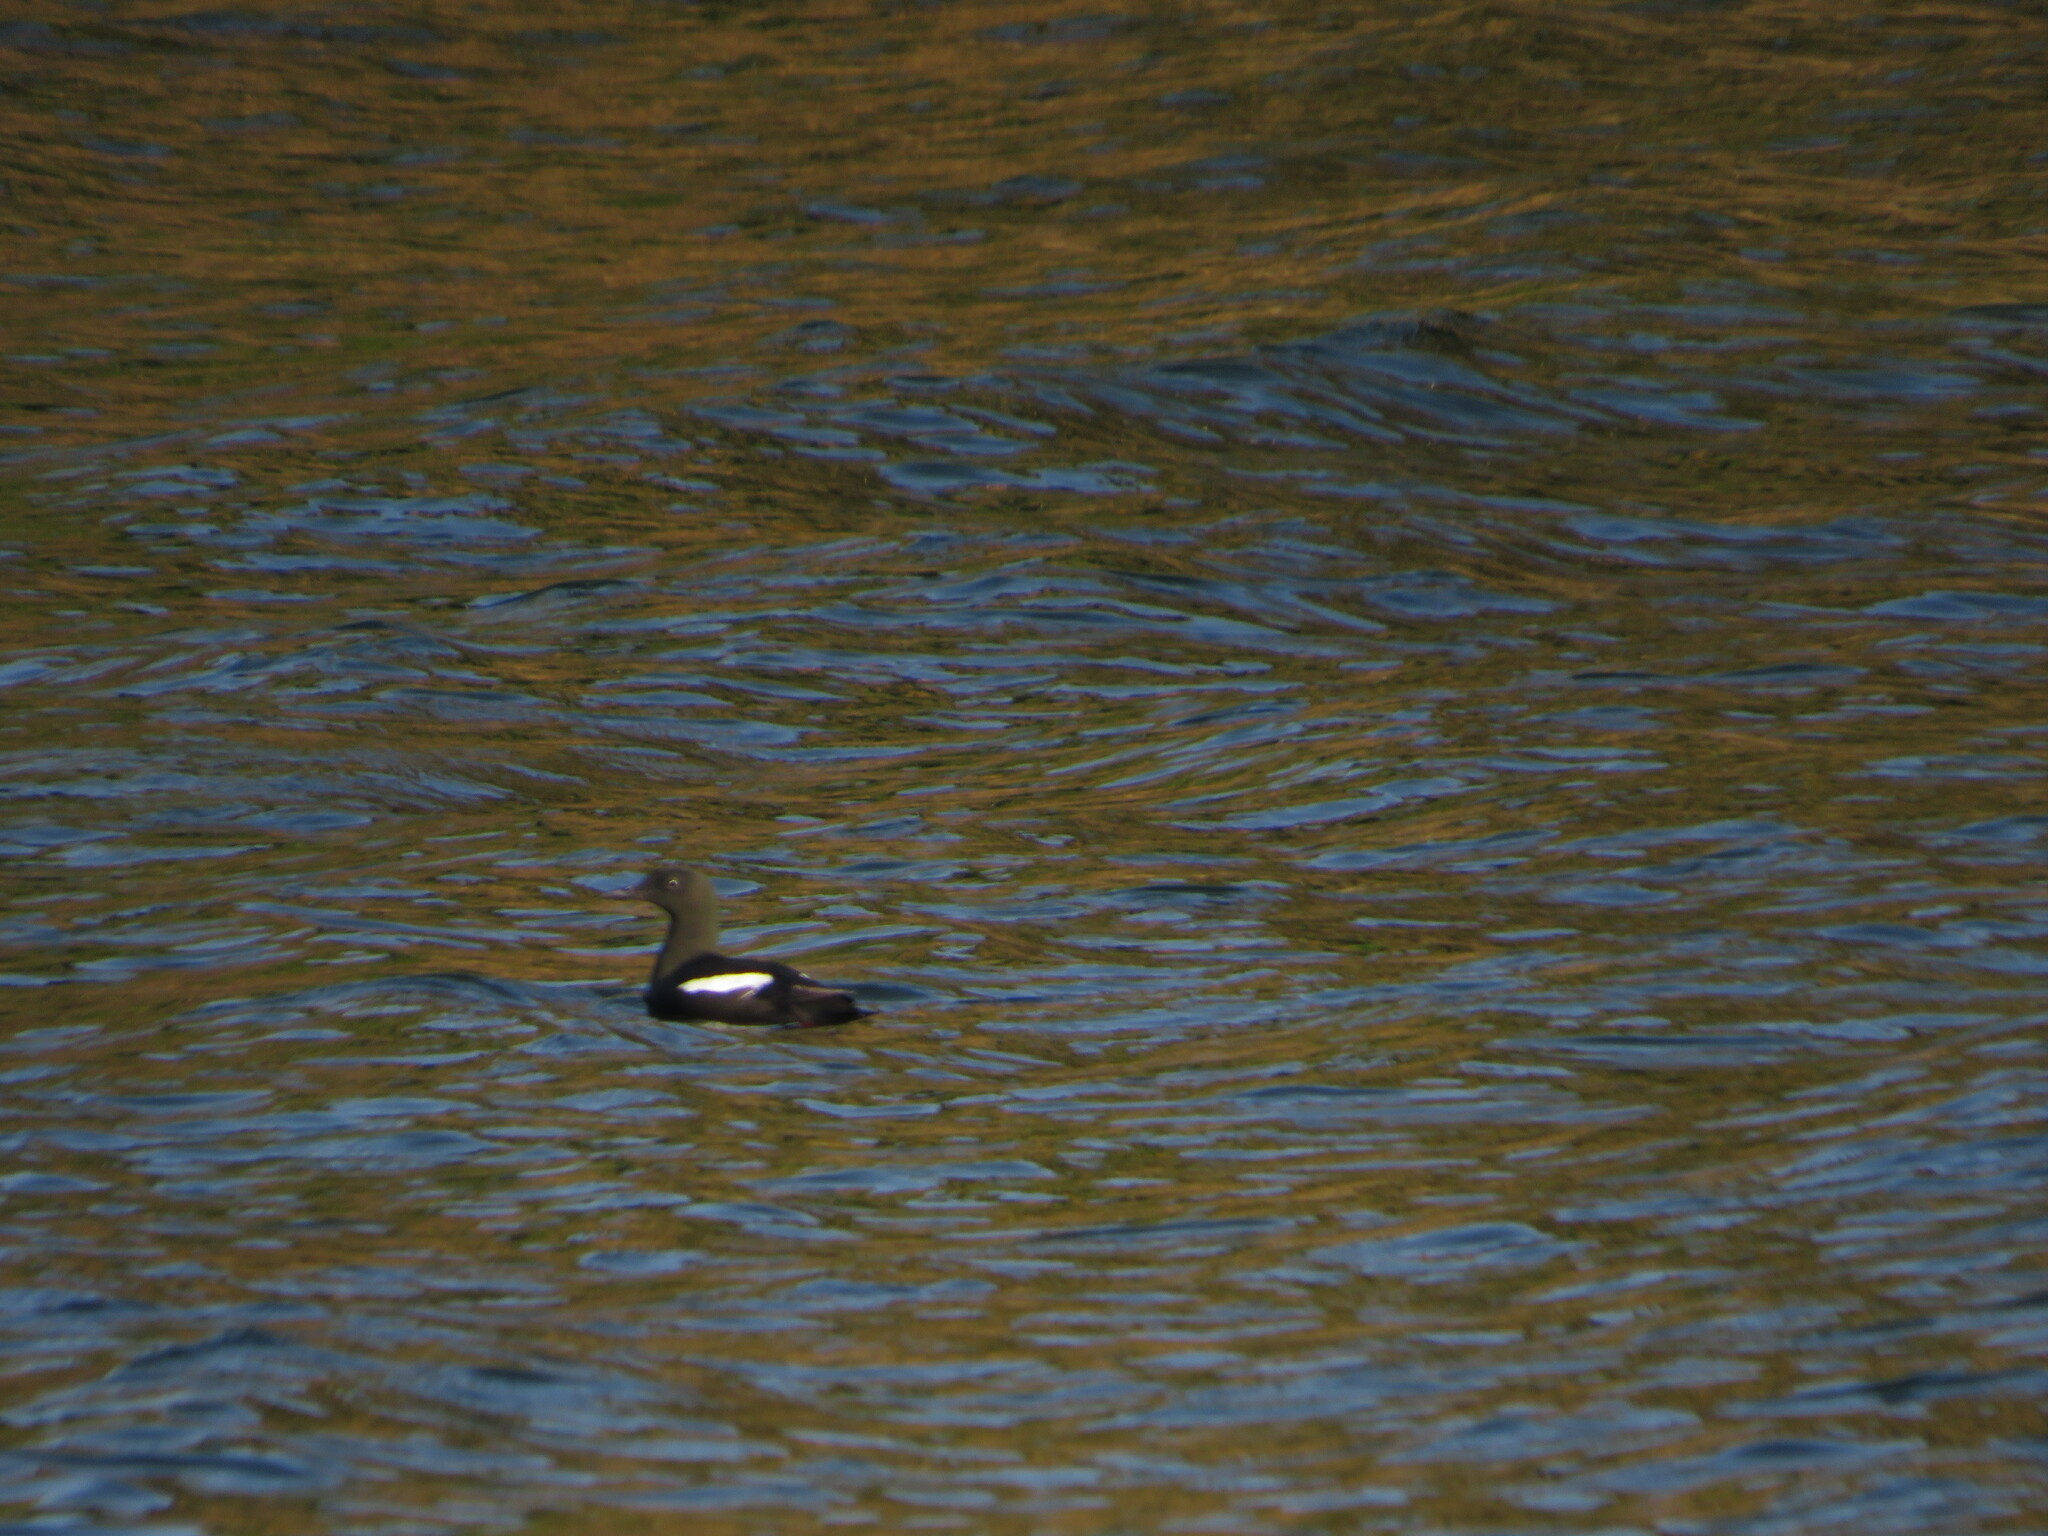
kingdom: Animalia
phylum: Chordata
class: Aves
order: Charadriiformes
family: Alcidae
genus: Cepphus
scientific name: Cepphus grylle
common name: Black guillemot
